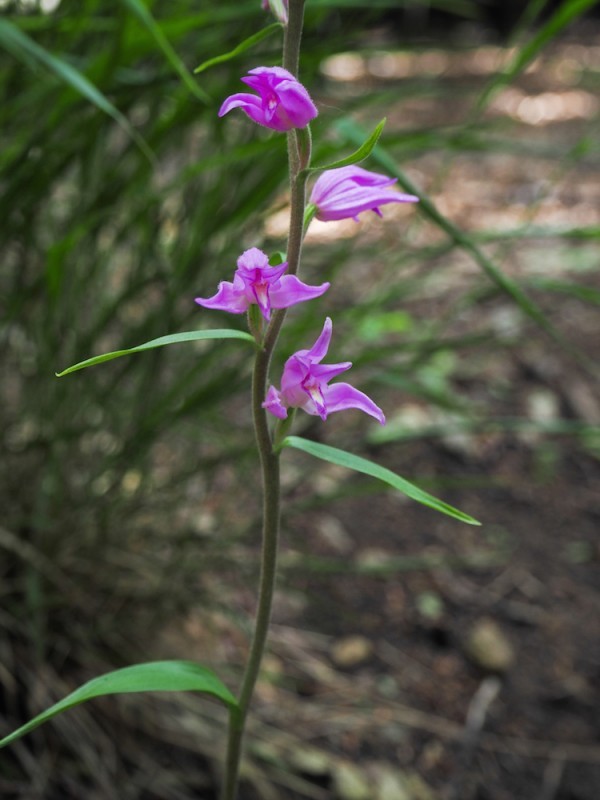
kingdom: Plantae
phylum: Tracheophyta
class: Liliopsida
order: Asparagales
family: Orchidaceae
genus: Cephalanthera
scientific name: Cephalanthera rubra
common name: Red helleborine
